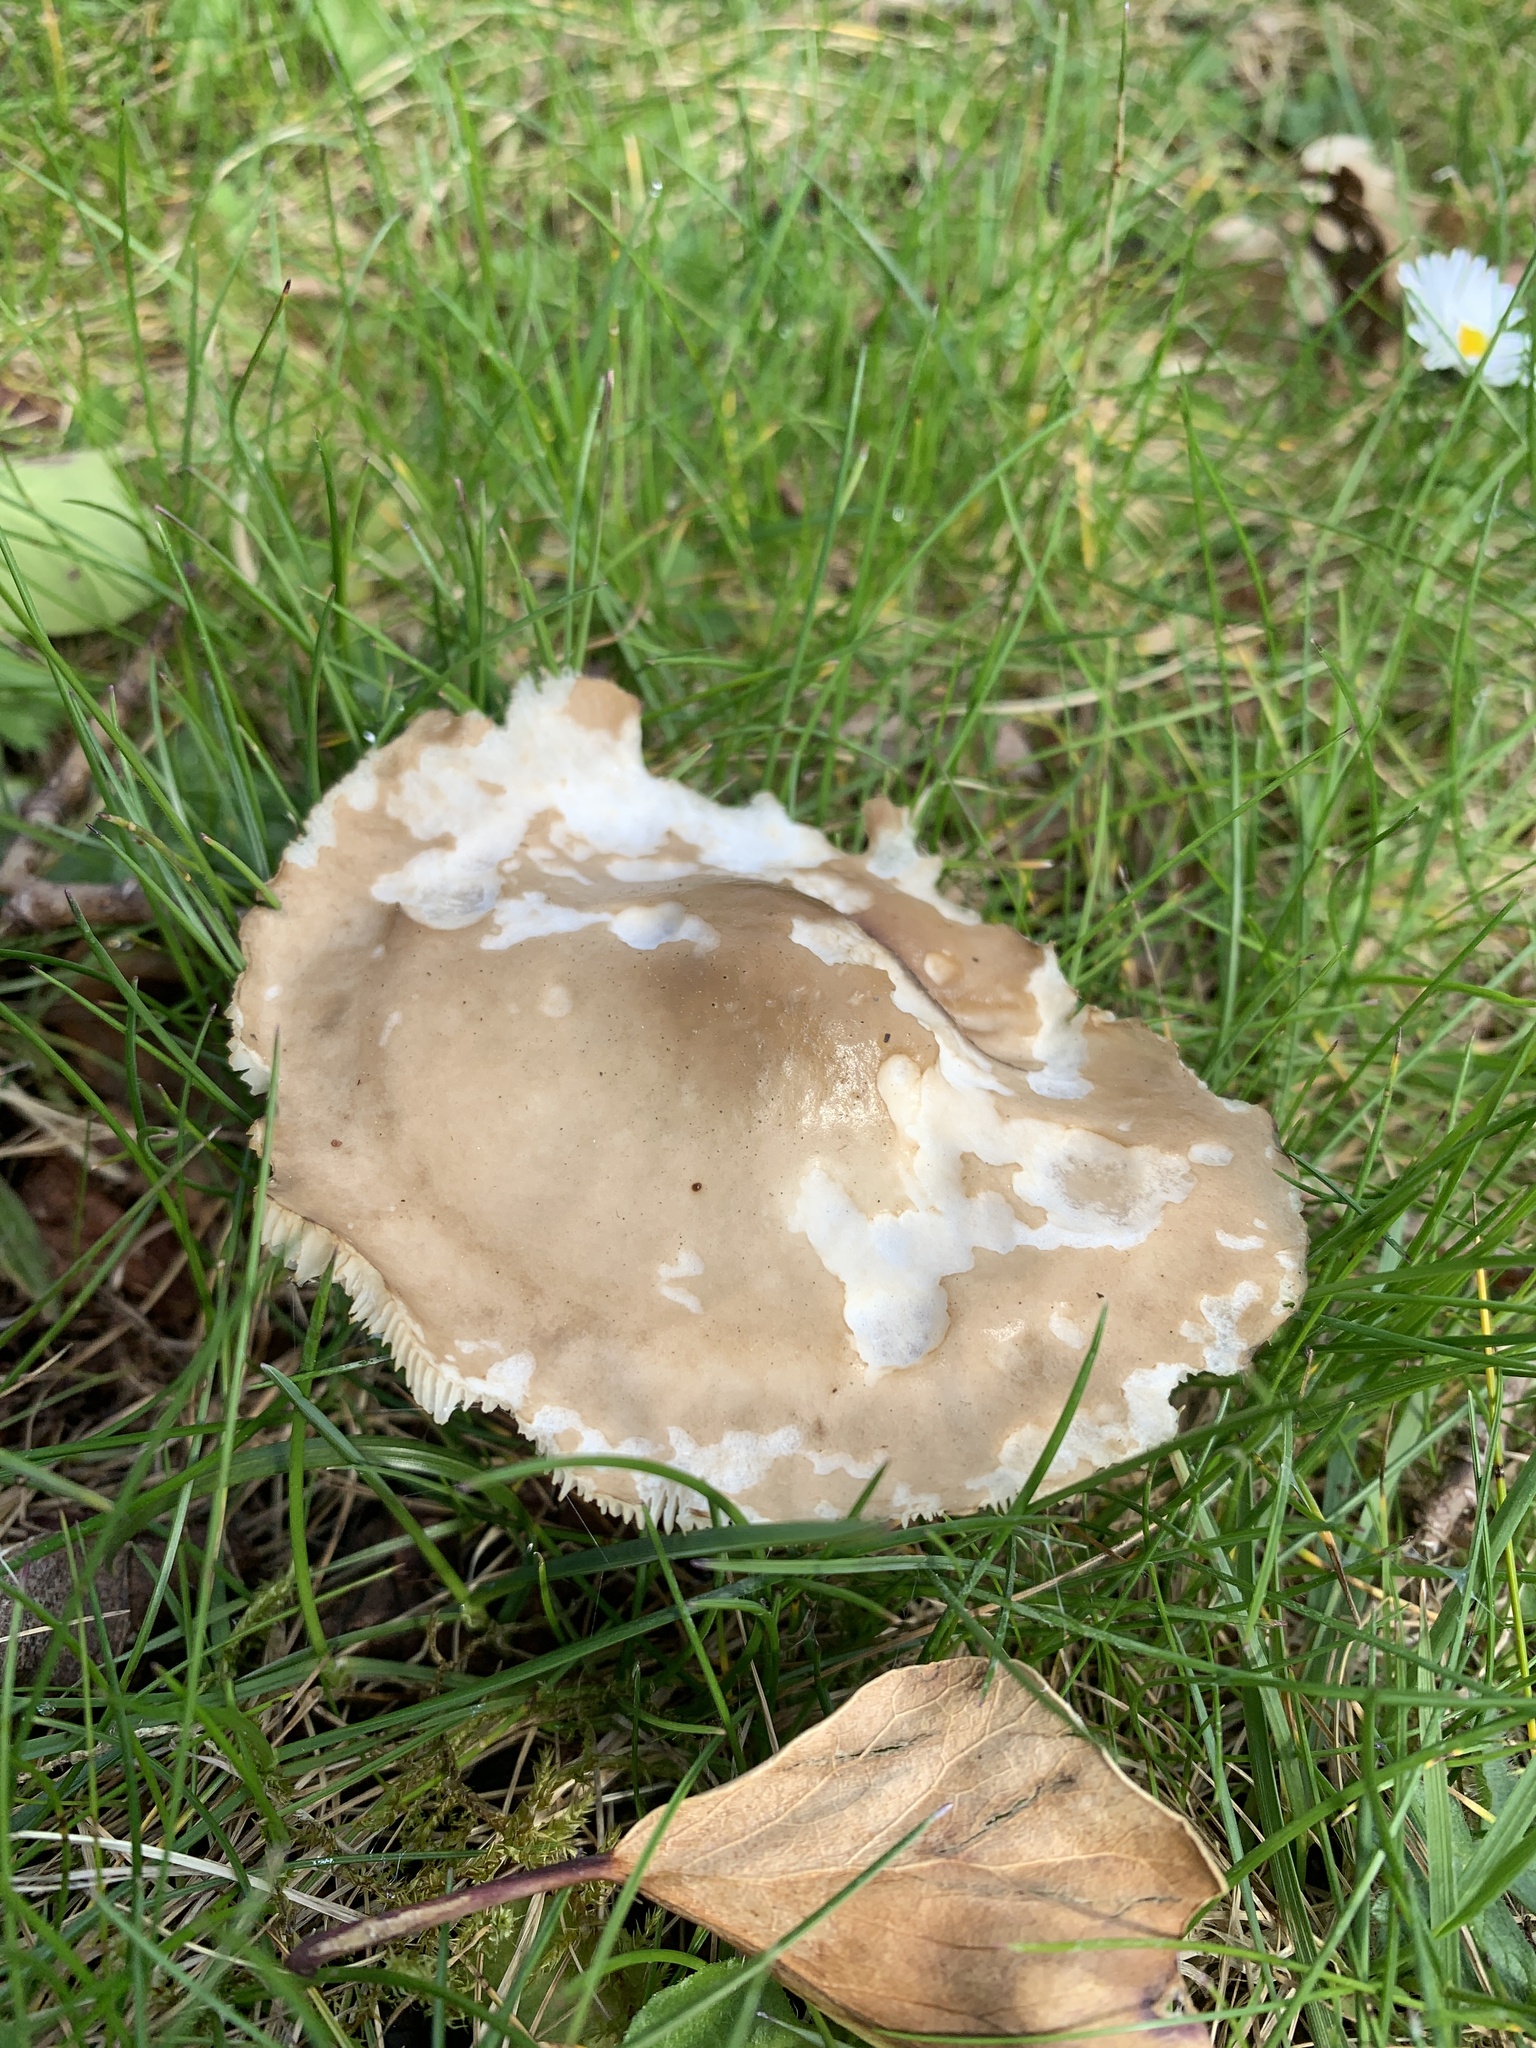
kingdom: Fungi
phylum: Basidiomycota
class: Agaricomycetes
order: Agaricales
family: Tricholomataceae
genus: Clitocybe
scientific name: Clitocybe nebularis
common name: Clouded agaric
